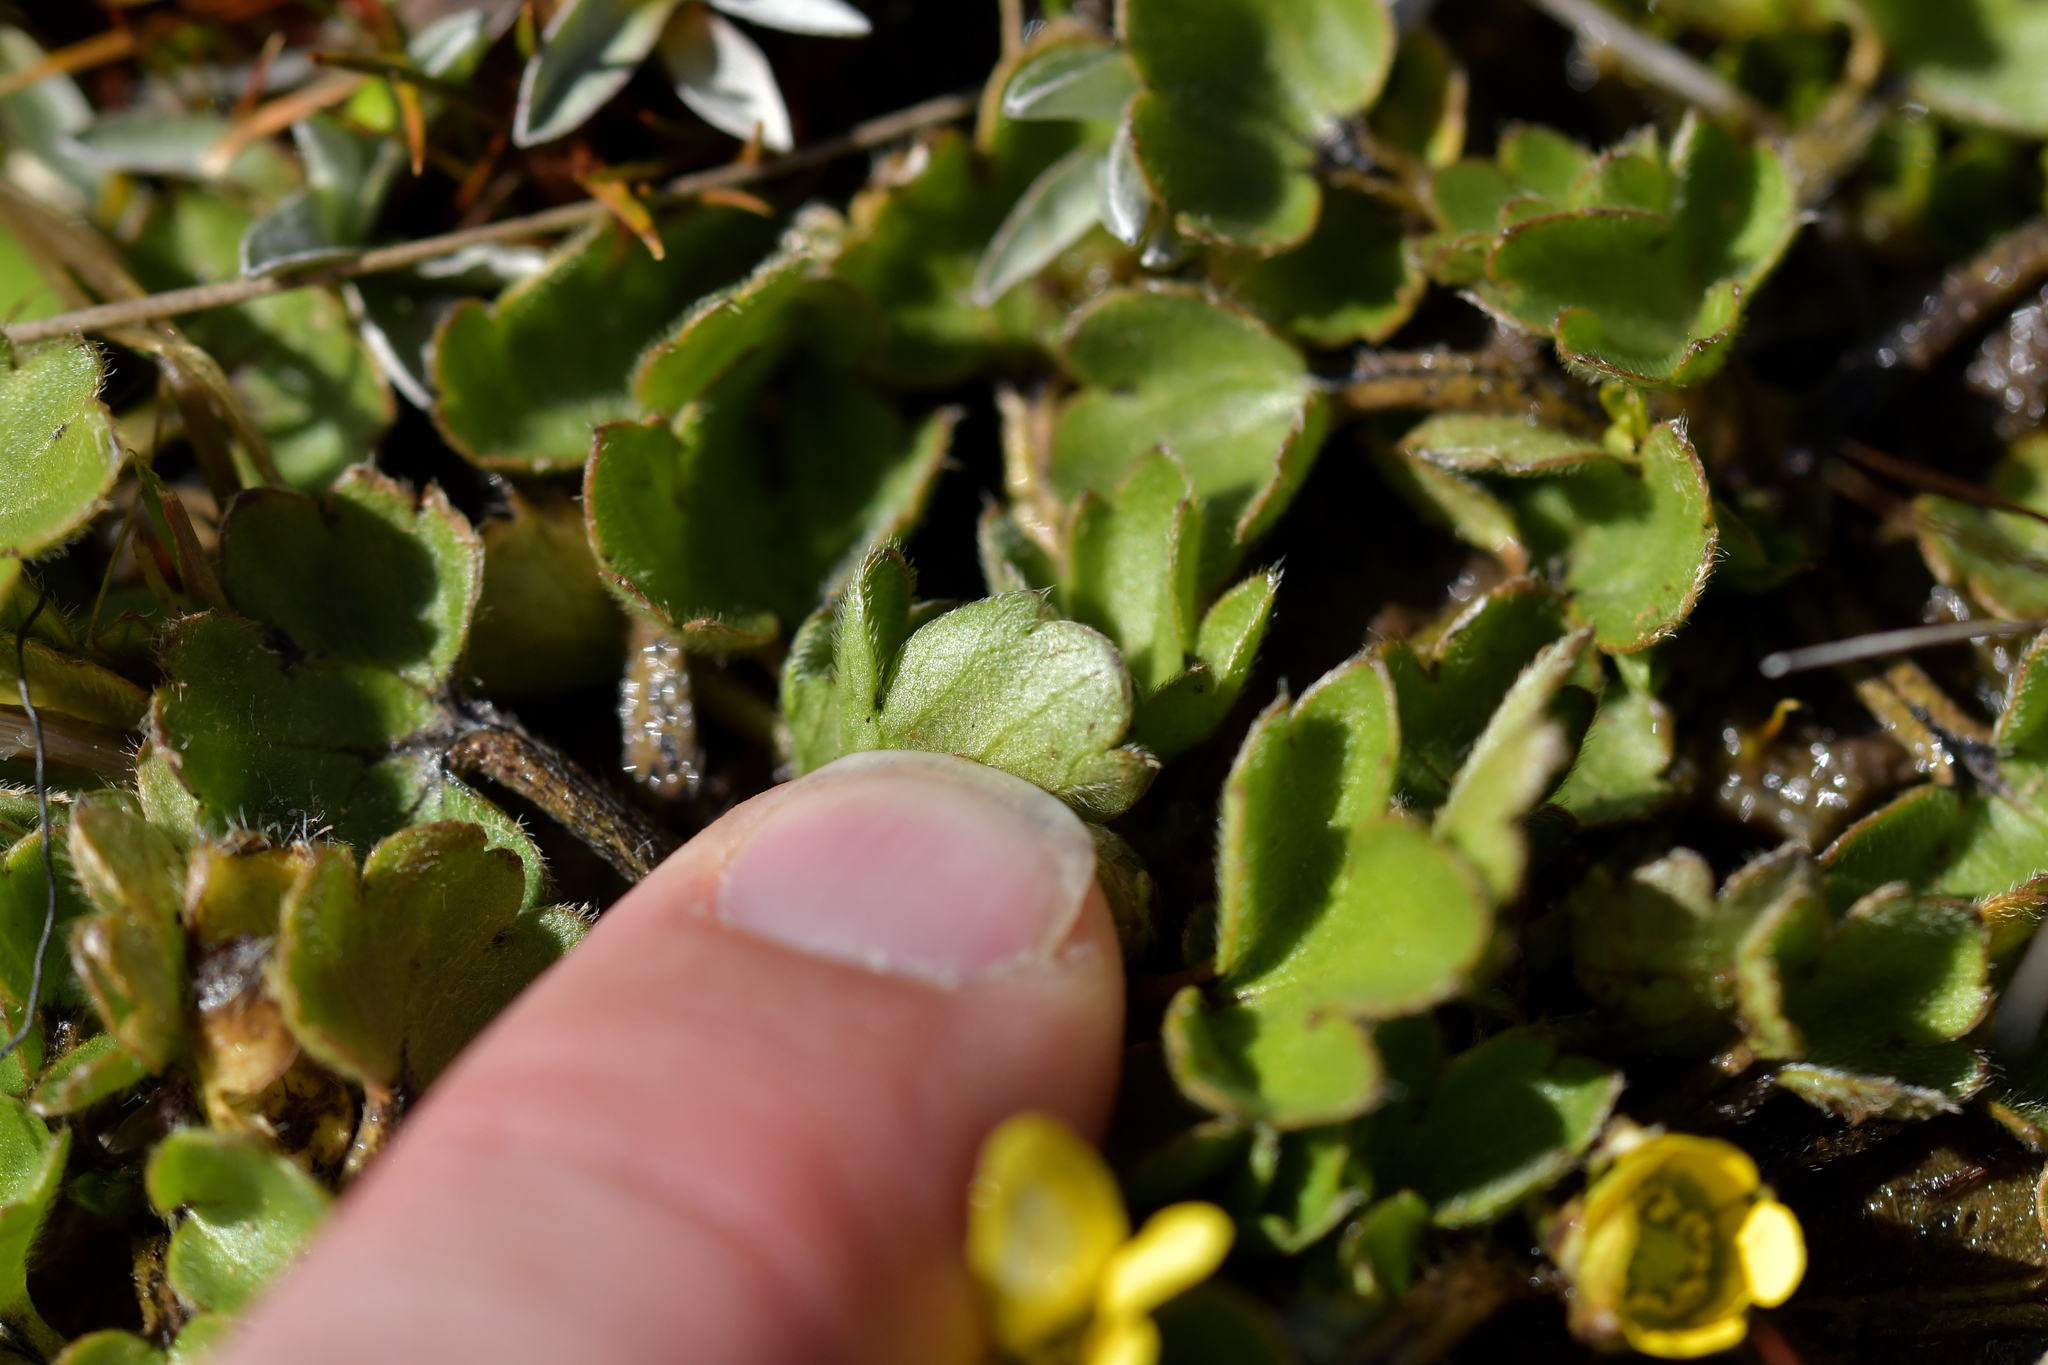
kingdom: Plantae
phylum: Tracheophyta
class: Magnoliopsida
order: Ranunculales
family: Ranunculaceae
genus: Ranunculus
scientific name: Ranunculus royi
